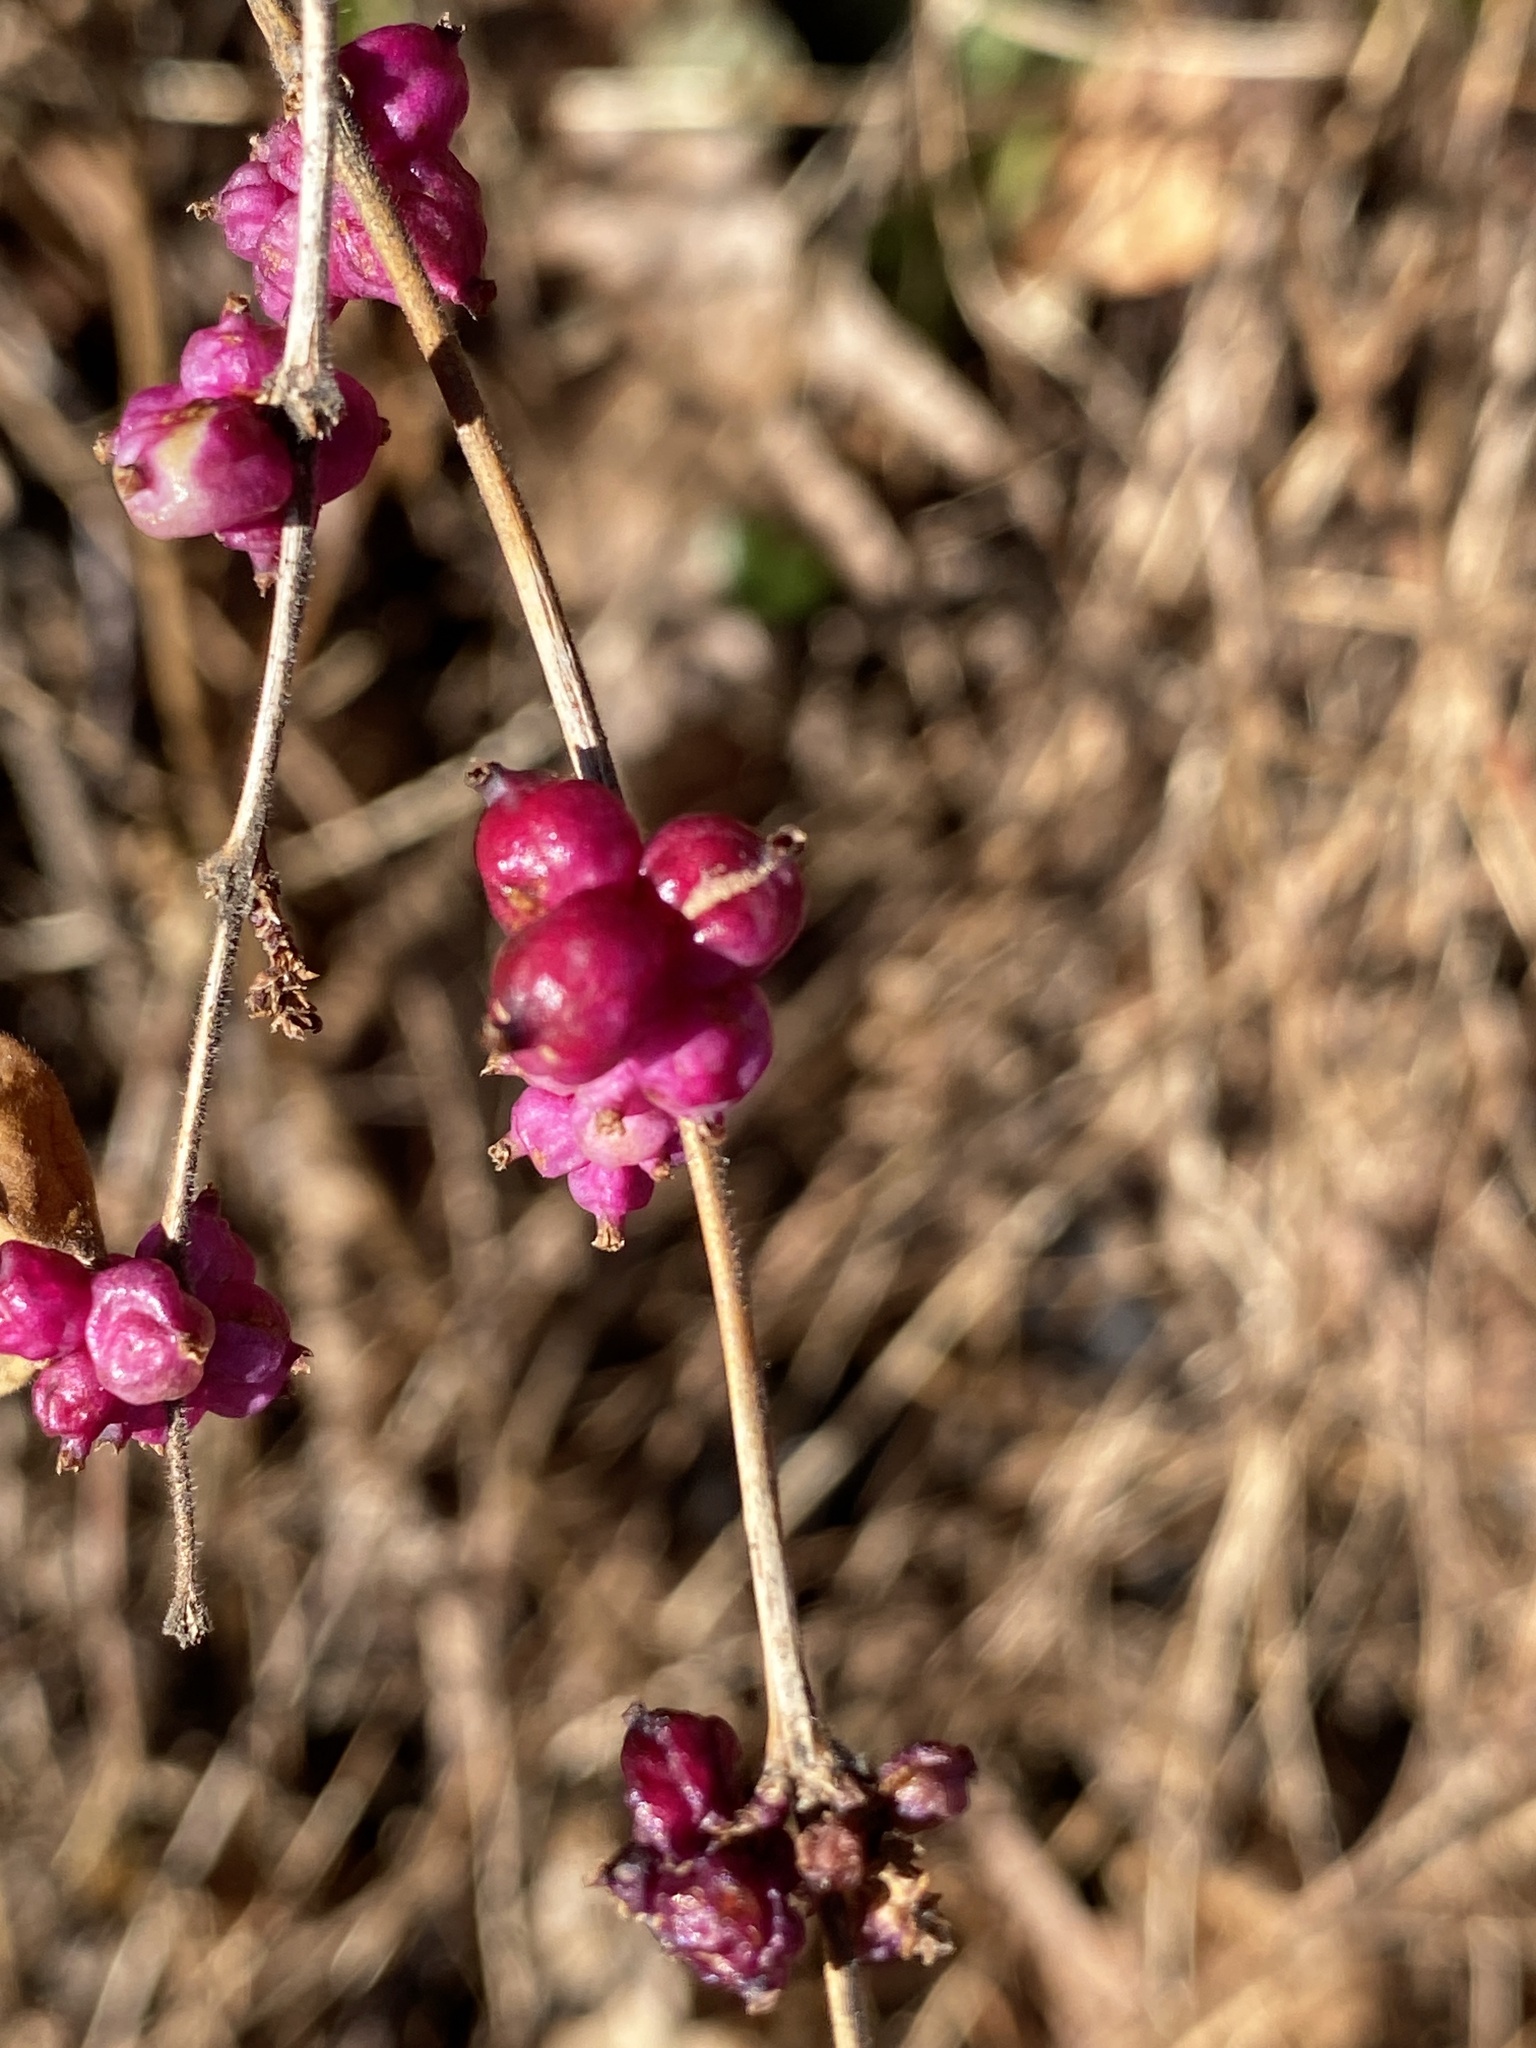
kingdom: Plantae
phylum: Tracheophyta
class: Magnoliopsida
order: Dipsacales
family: Caprifoliaceae
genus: Symphoricarpos
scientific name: Symphoricarpos orbiculatus
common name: Coralberry
